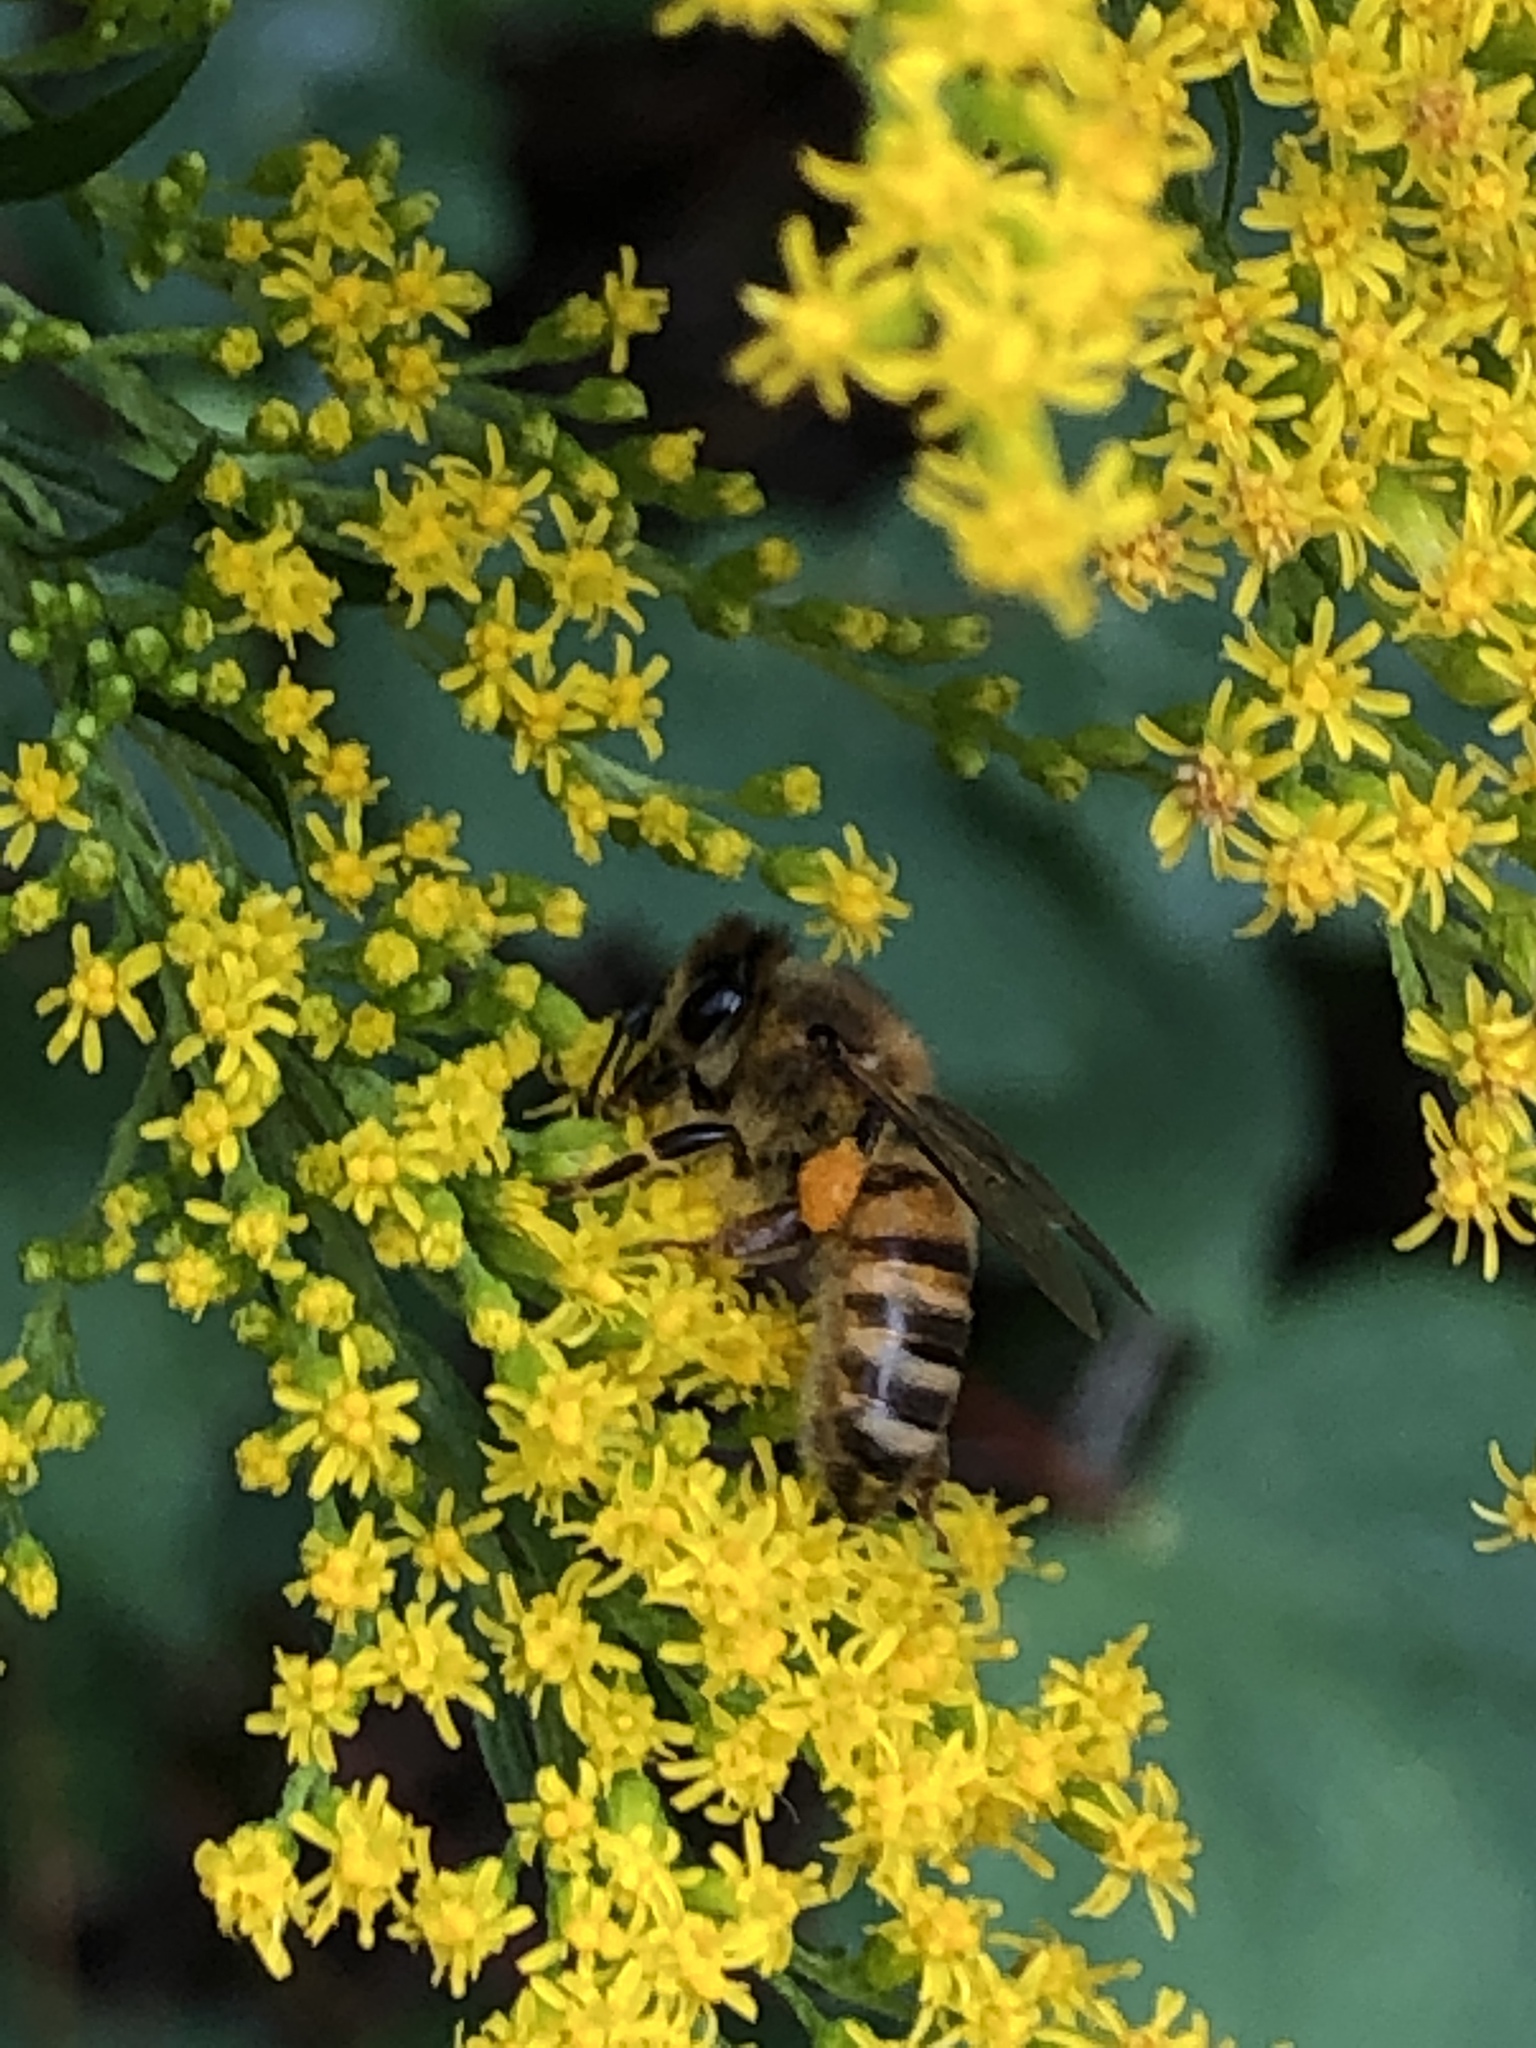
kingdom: Animalia
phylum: Arthropoda
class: Insecta
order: Hymenoptera
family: Apidae
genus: Apis
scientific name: Apis mellifera
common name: Honey bee
